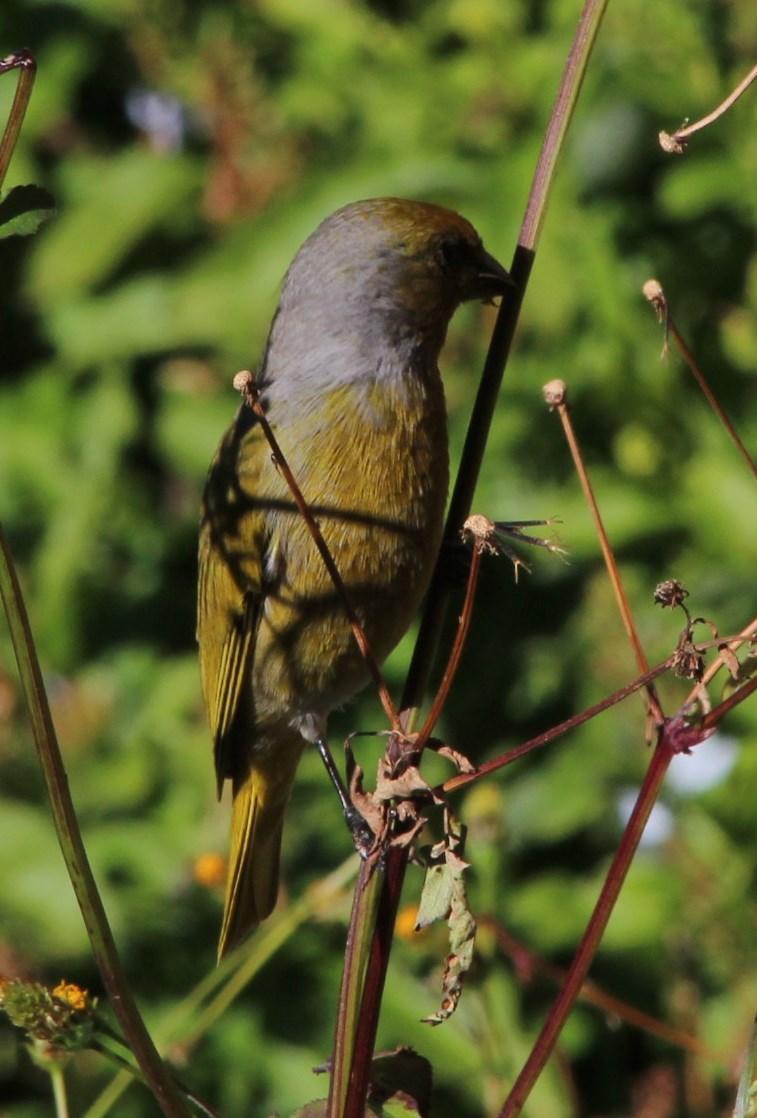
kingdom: Animalia
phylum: Chordata
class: Aves
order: Passeriformes
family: Fringillidae
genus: Serinus
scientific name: Serinus canicollis
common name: Cape canary
